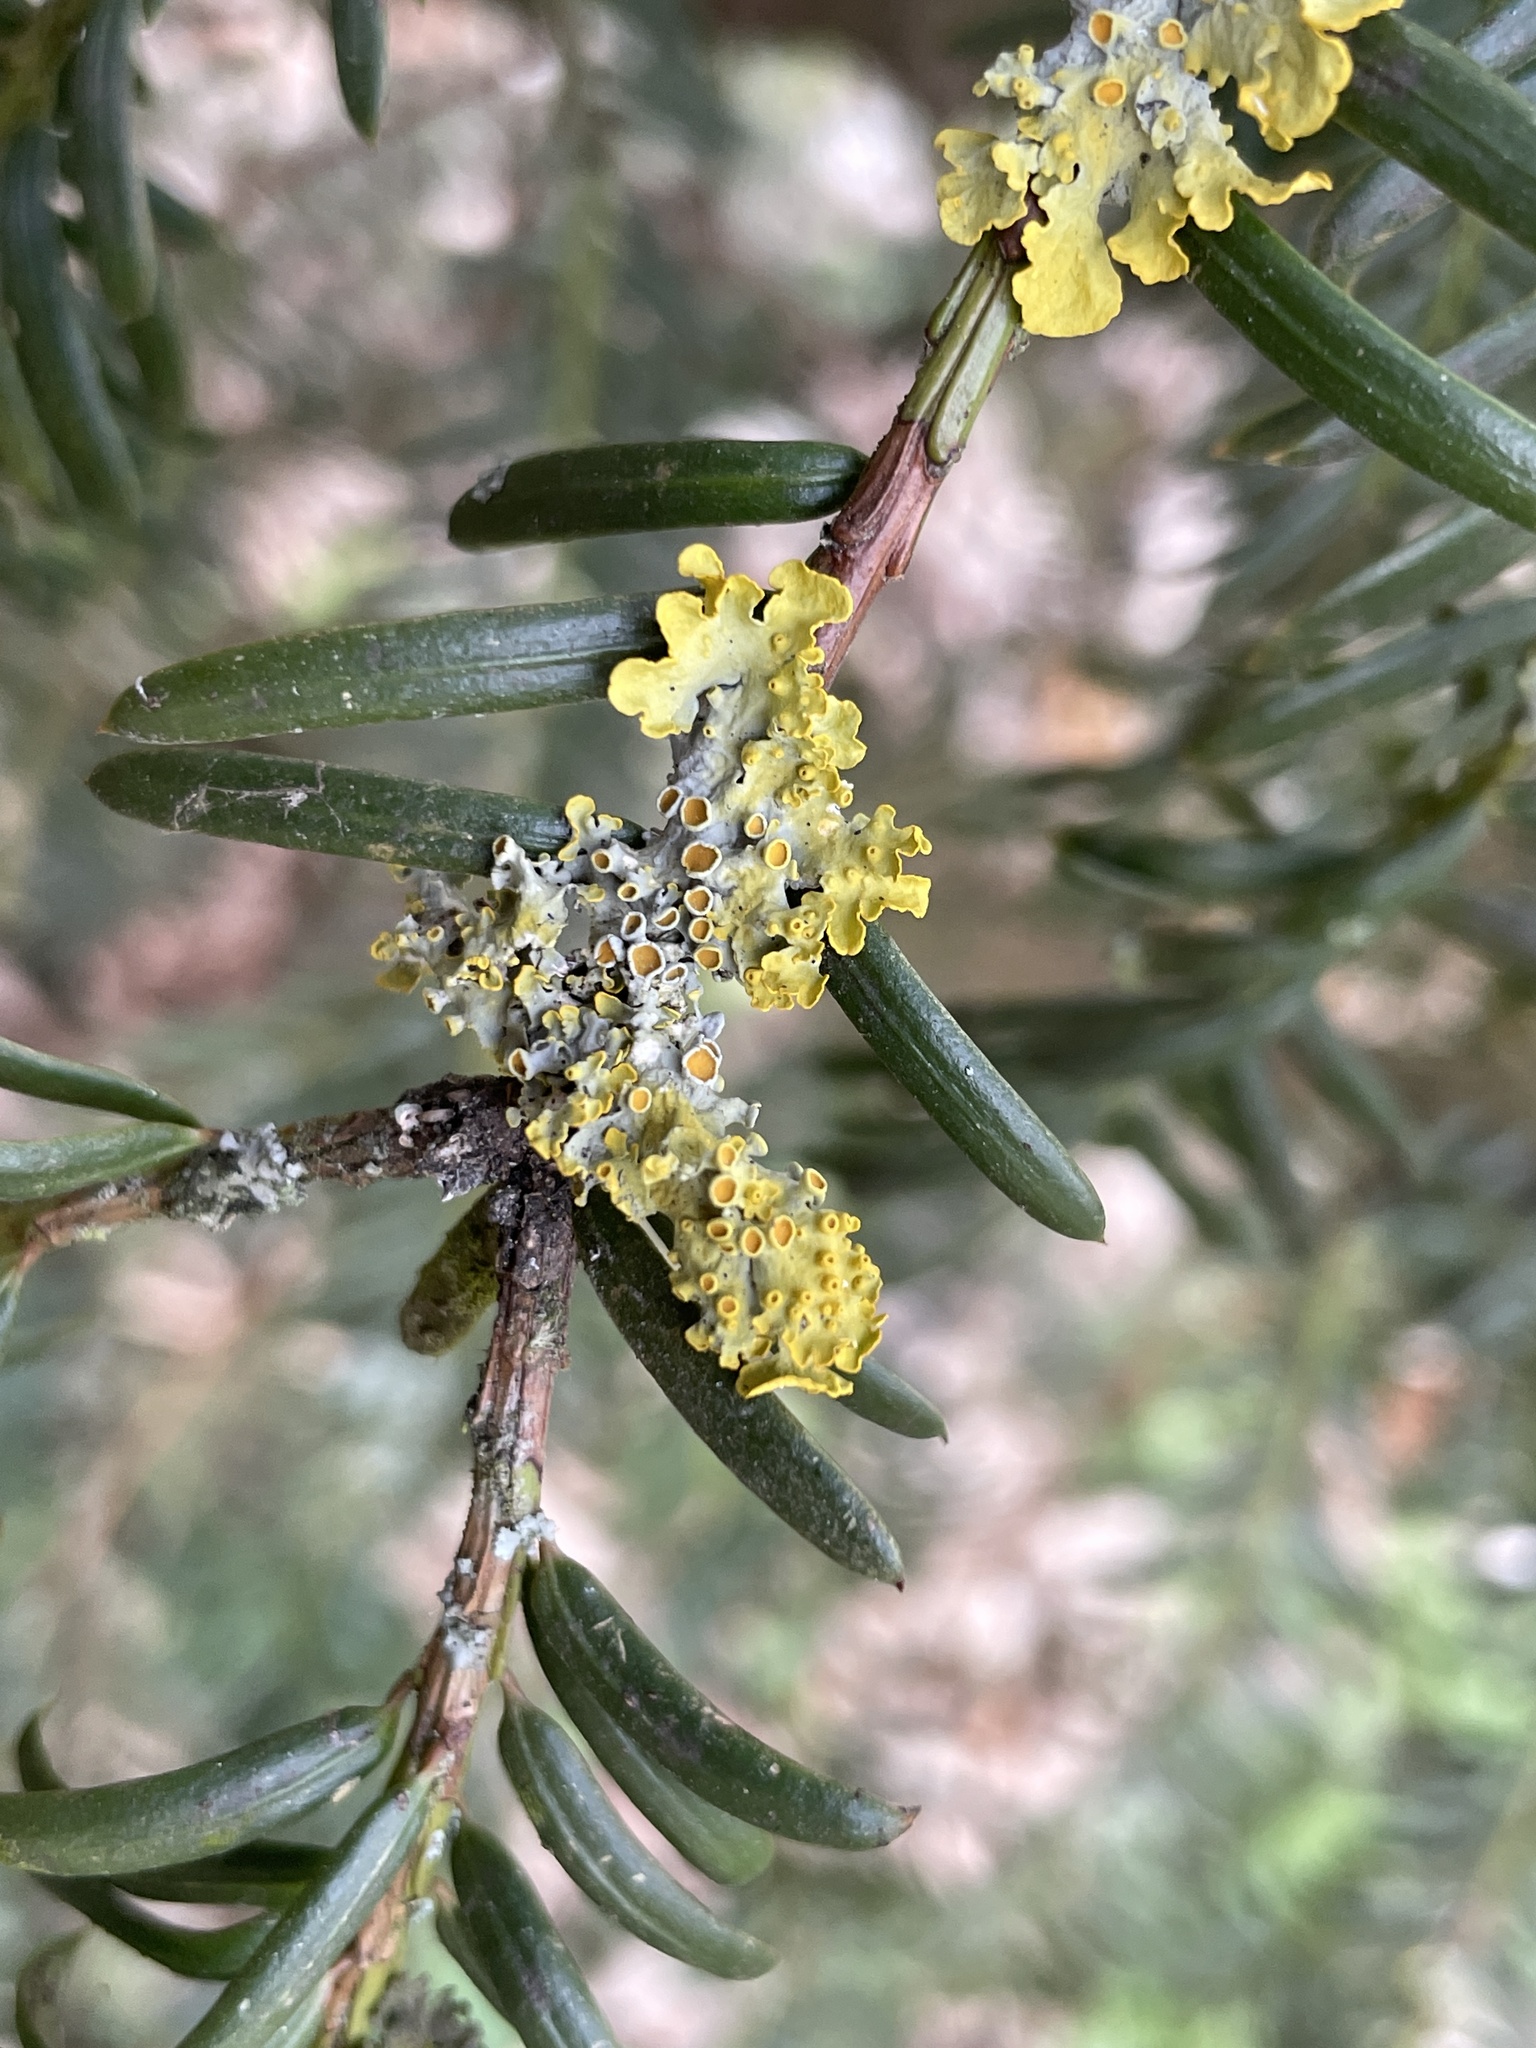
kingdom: Fungi
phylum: Ascomycota
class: Lecanoromycetes
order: Teloschistales
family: Teloschistaceae
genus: Xanthoria
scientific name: Xanthoria parietina
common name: Common orange lichen
